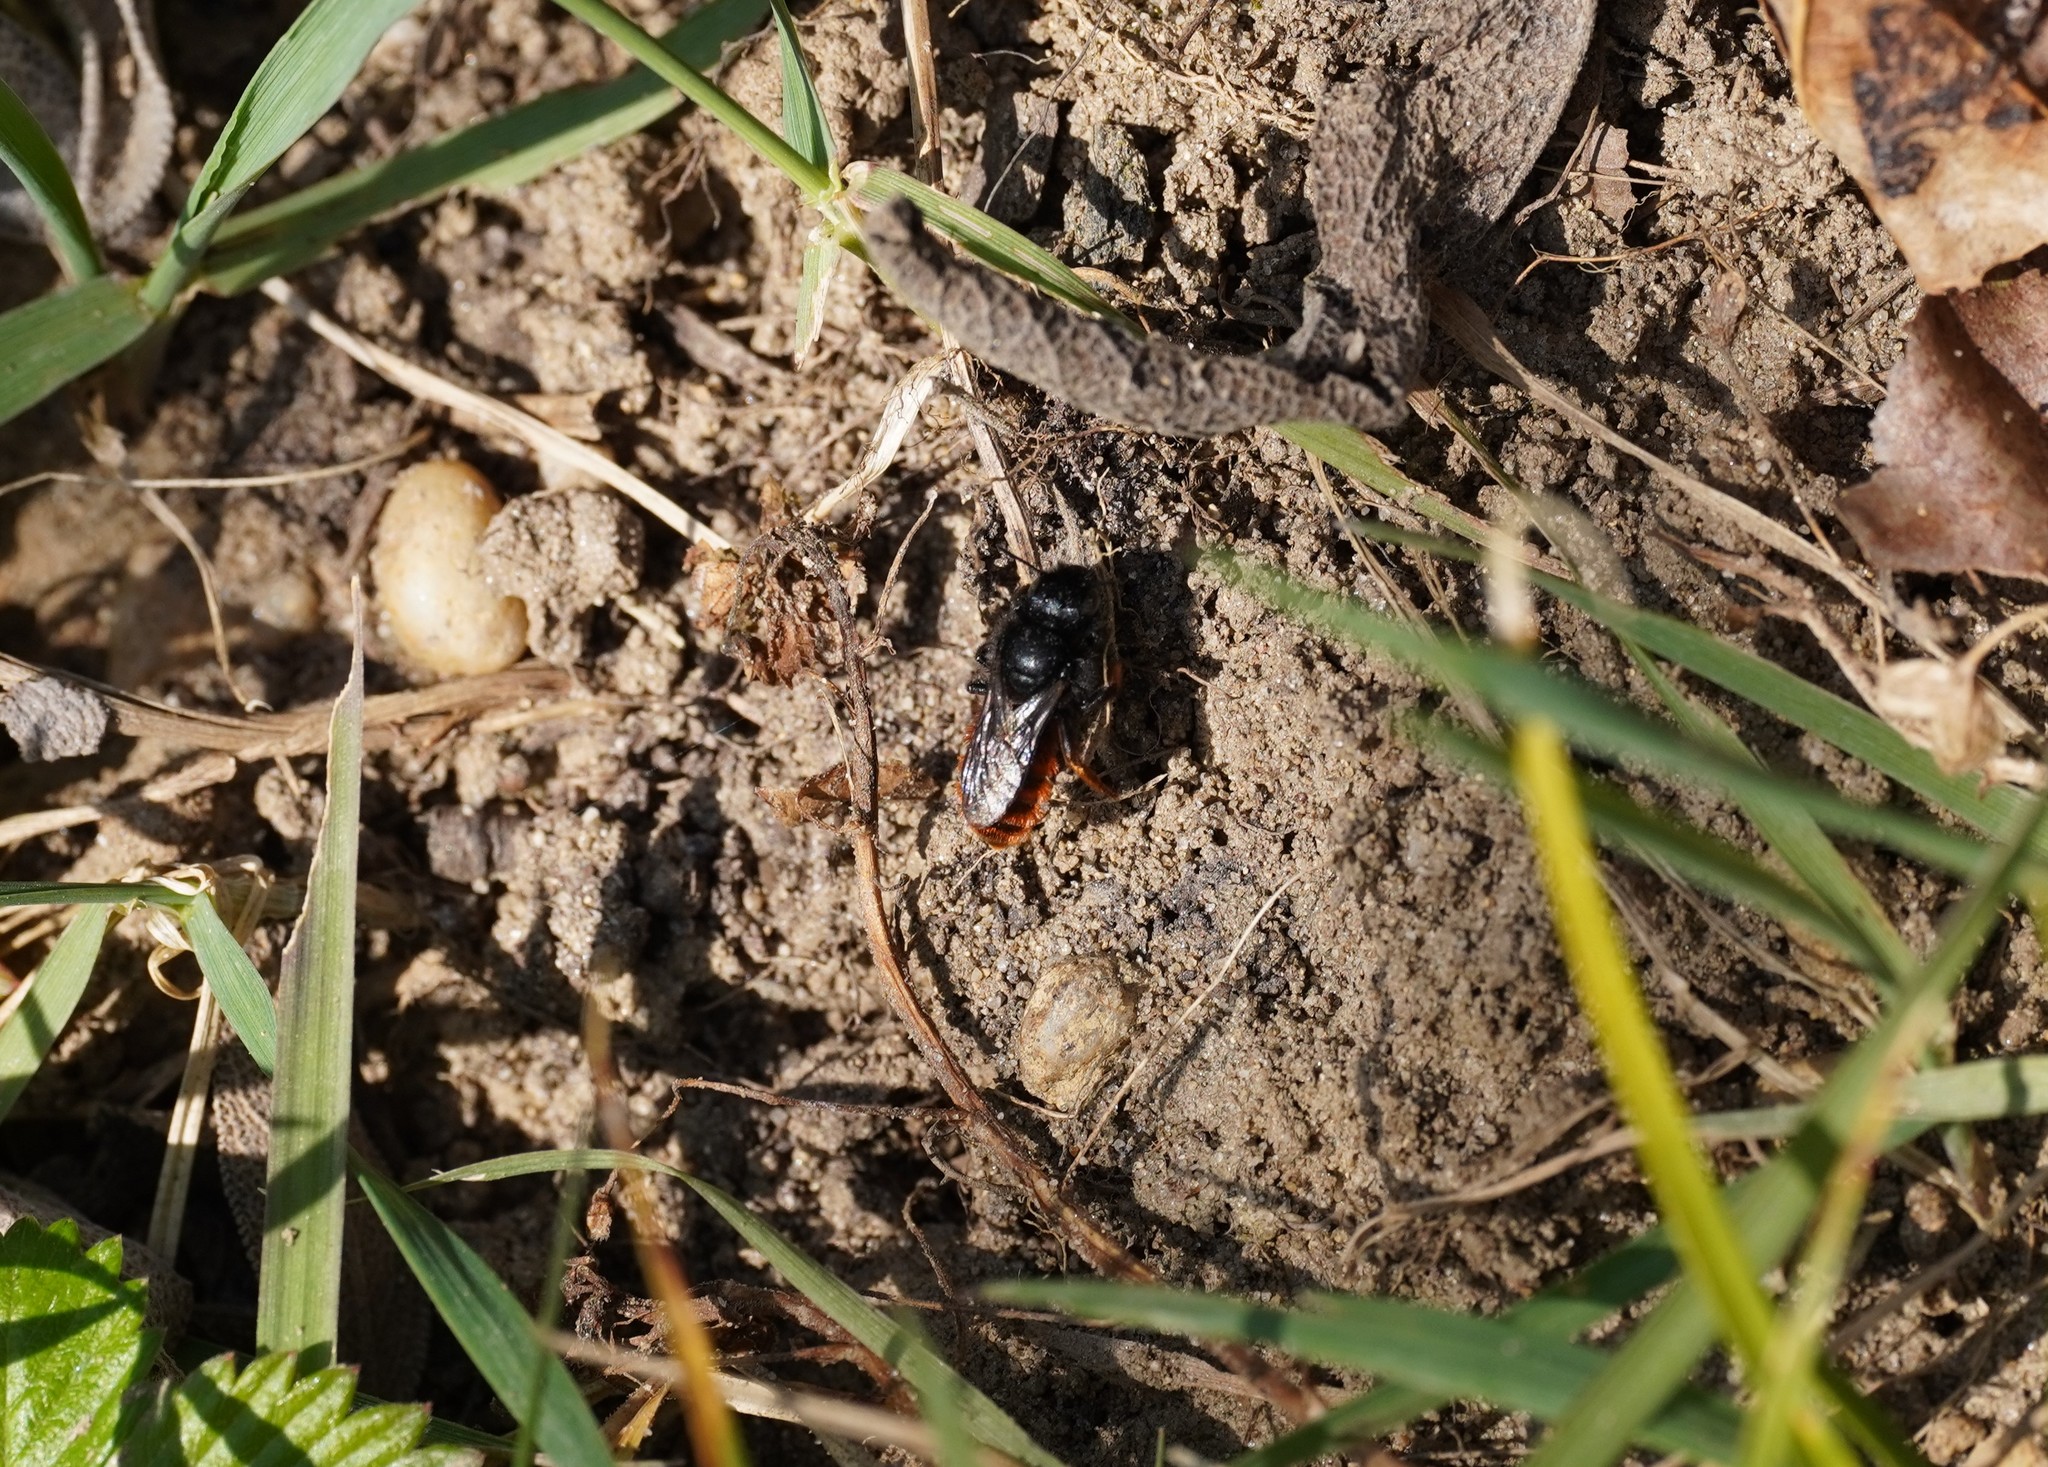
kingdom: Animalia
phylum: Arthropoda
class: Insecta
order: Hymenoptera
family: Megachilidae
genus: Osmia
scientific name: Osmia bicolor
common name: Red-tailed mason bee
